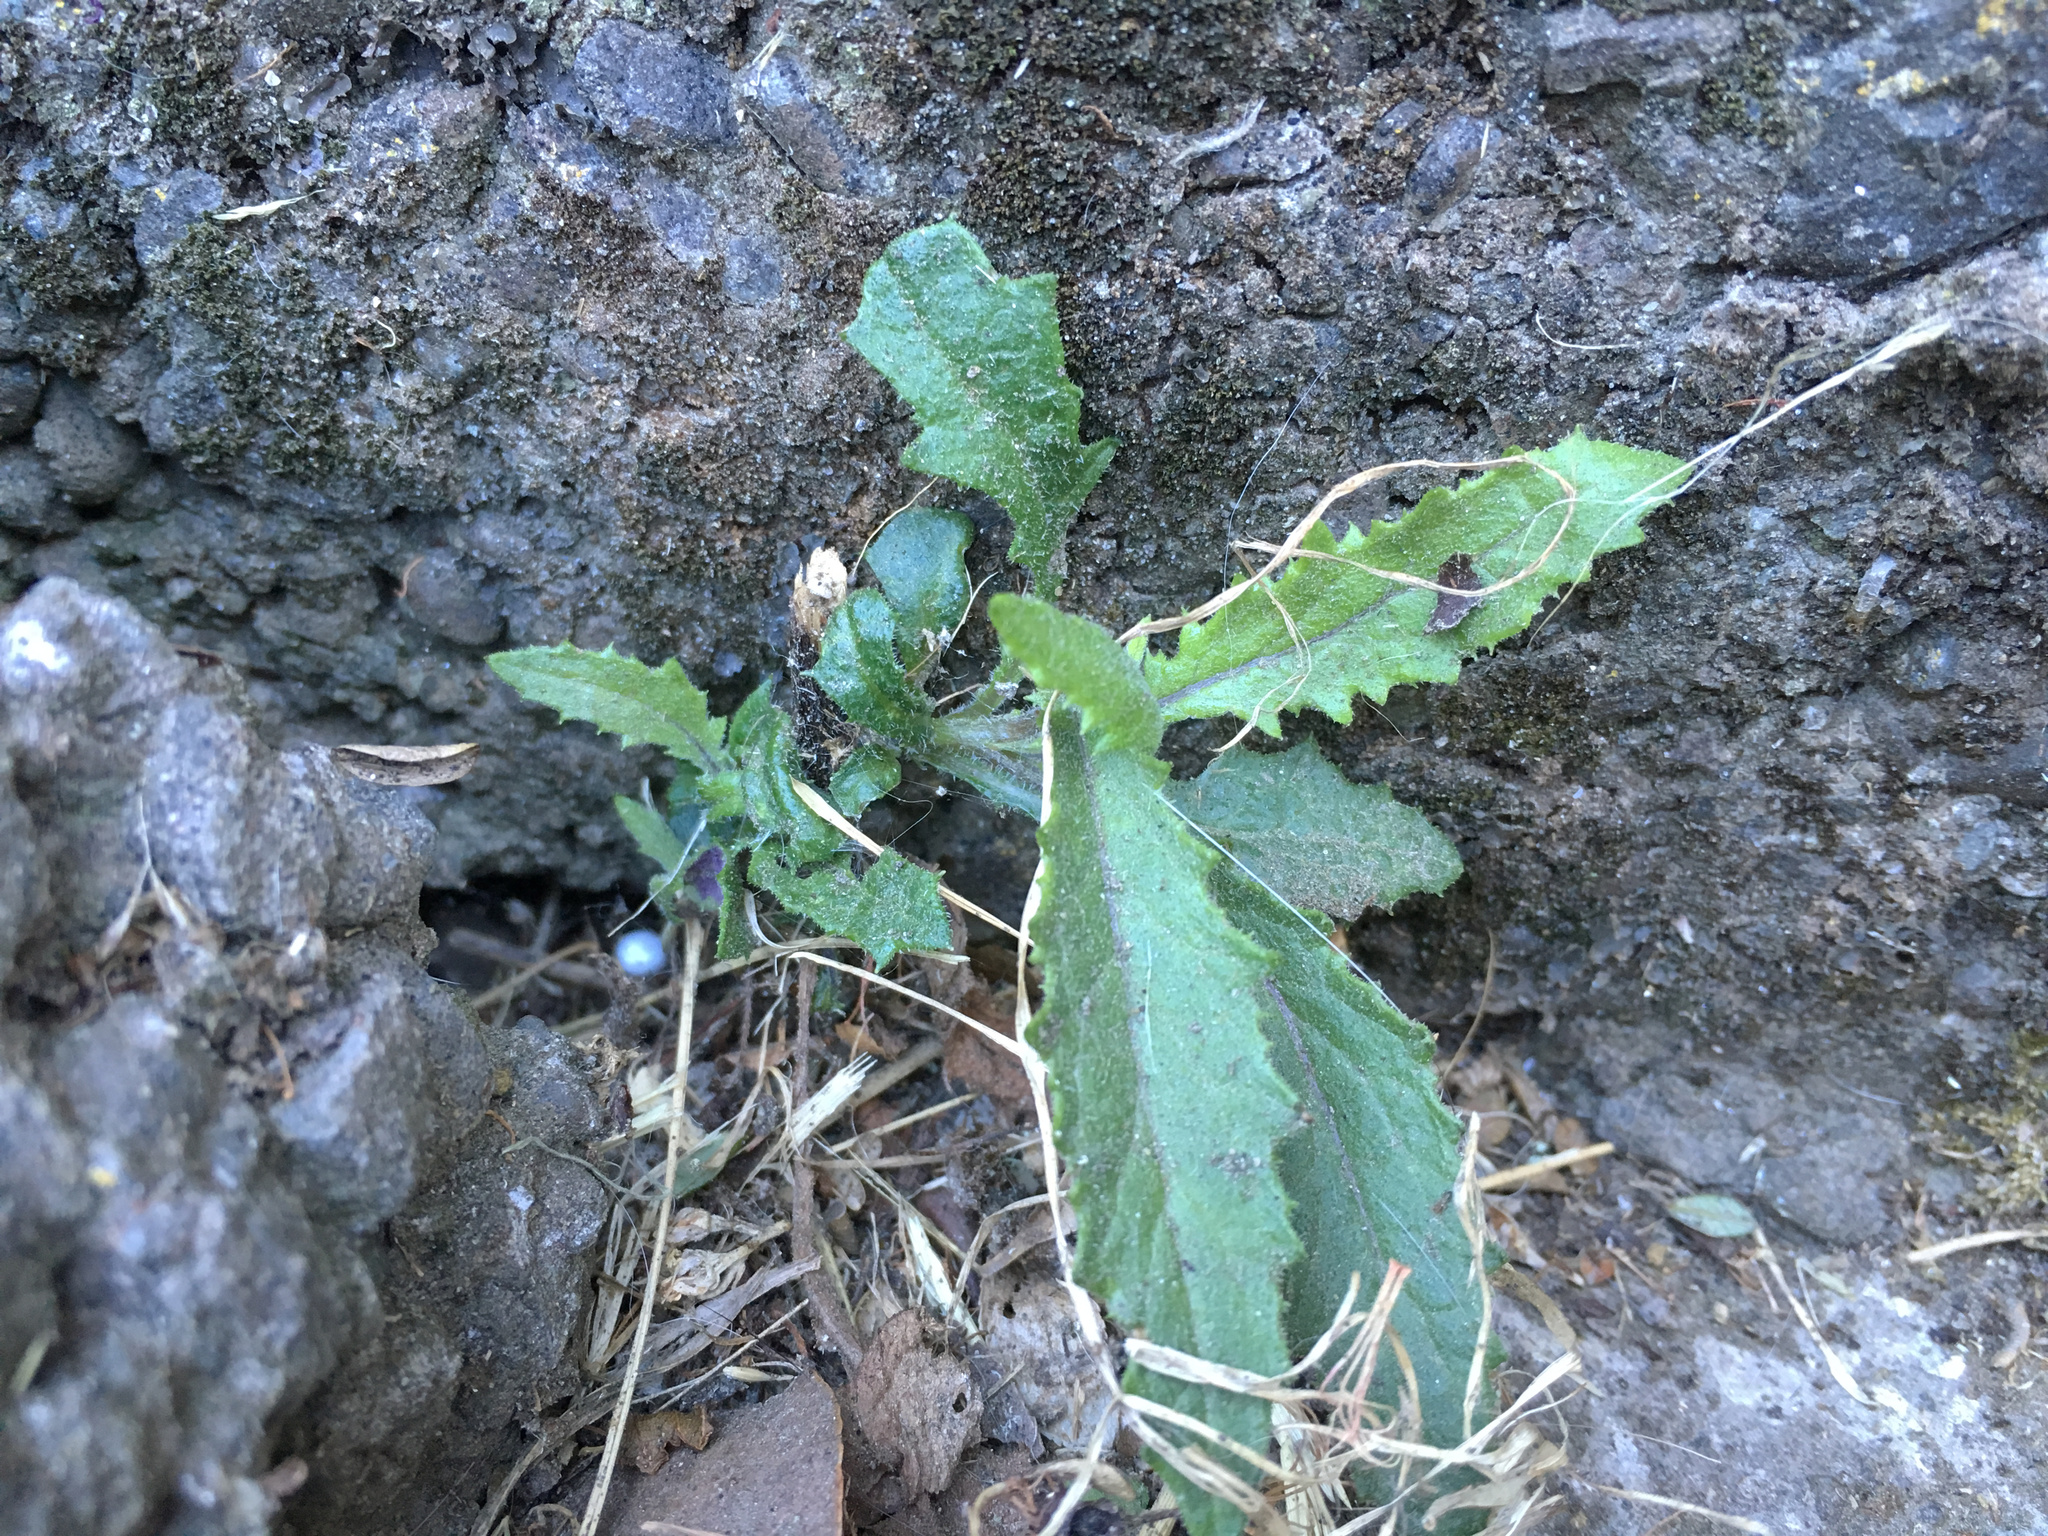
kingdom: Plantae
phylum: Tracheophyta
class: Magnoliopsida
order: Asterales
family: Asteraceae
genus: Senecio
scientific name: Senecio minimus
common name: Toothed fireweed
